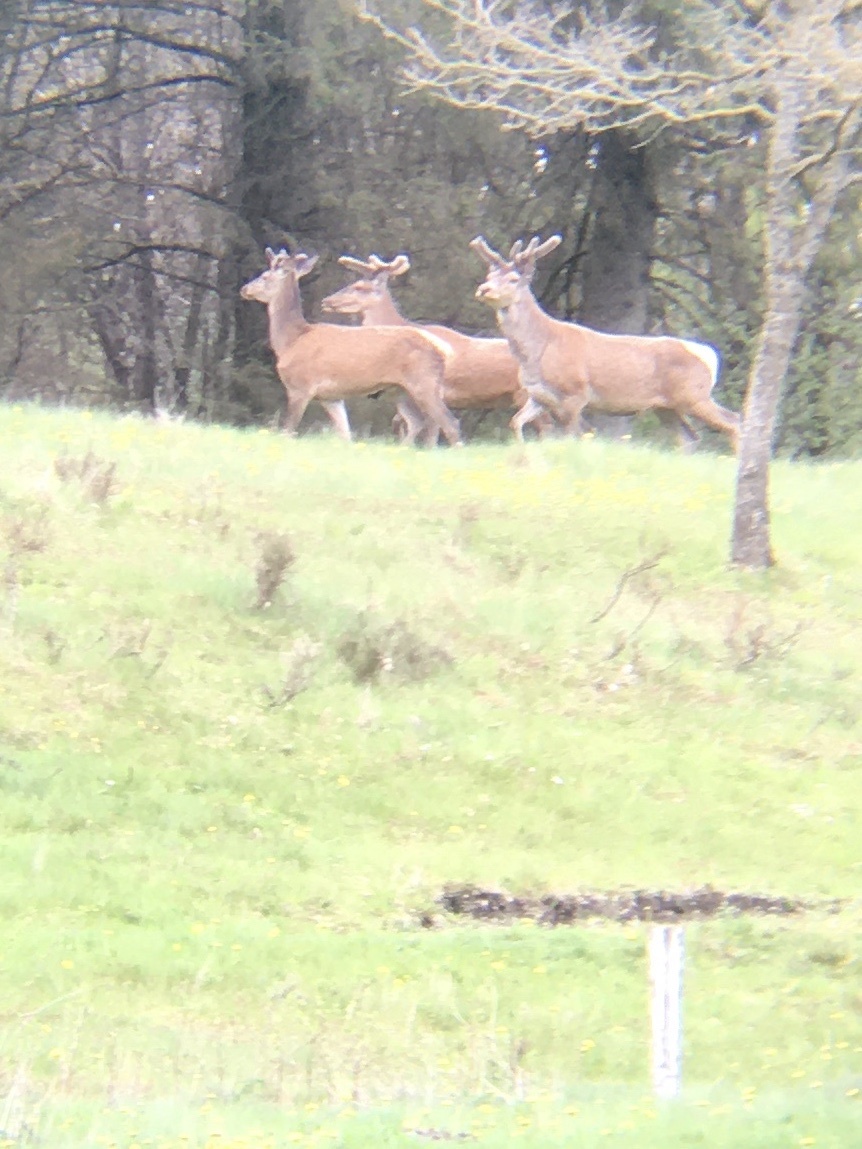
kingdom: Animalia
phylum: Chordata
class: Mammalia
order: Artiodactyla
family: Cervidae
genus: Cervus
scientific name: Cervus elaphus
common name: Red deer
